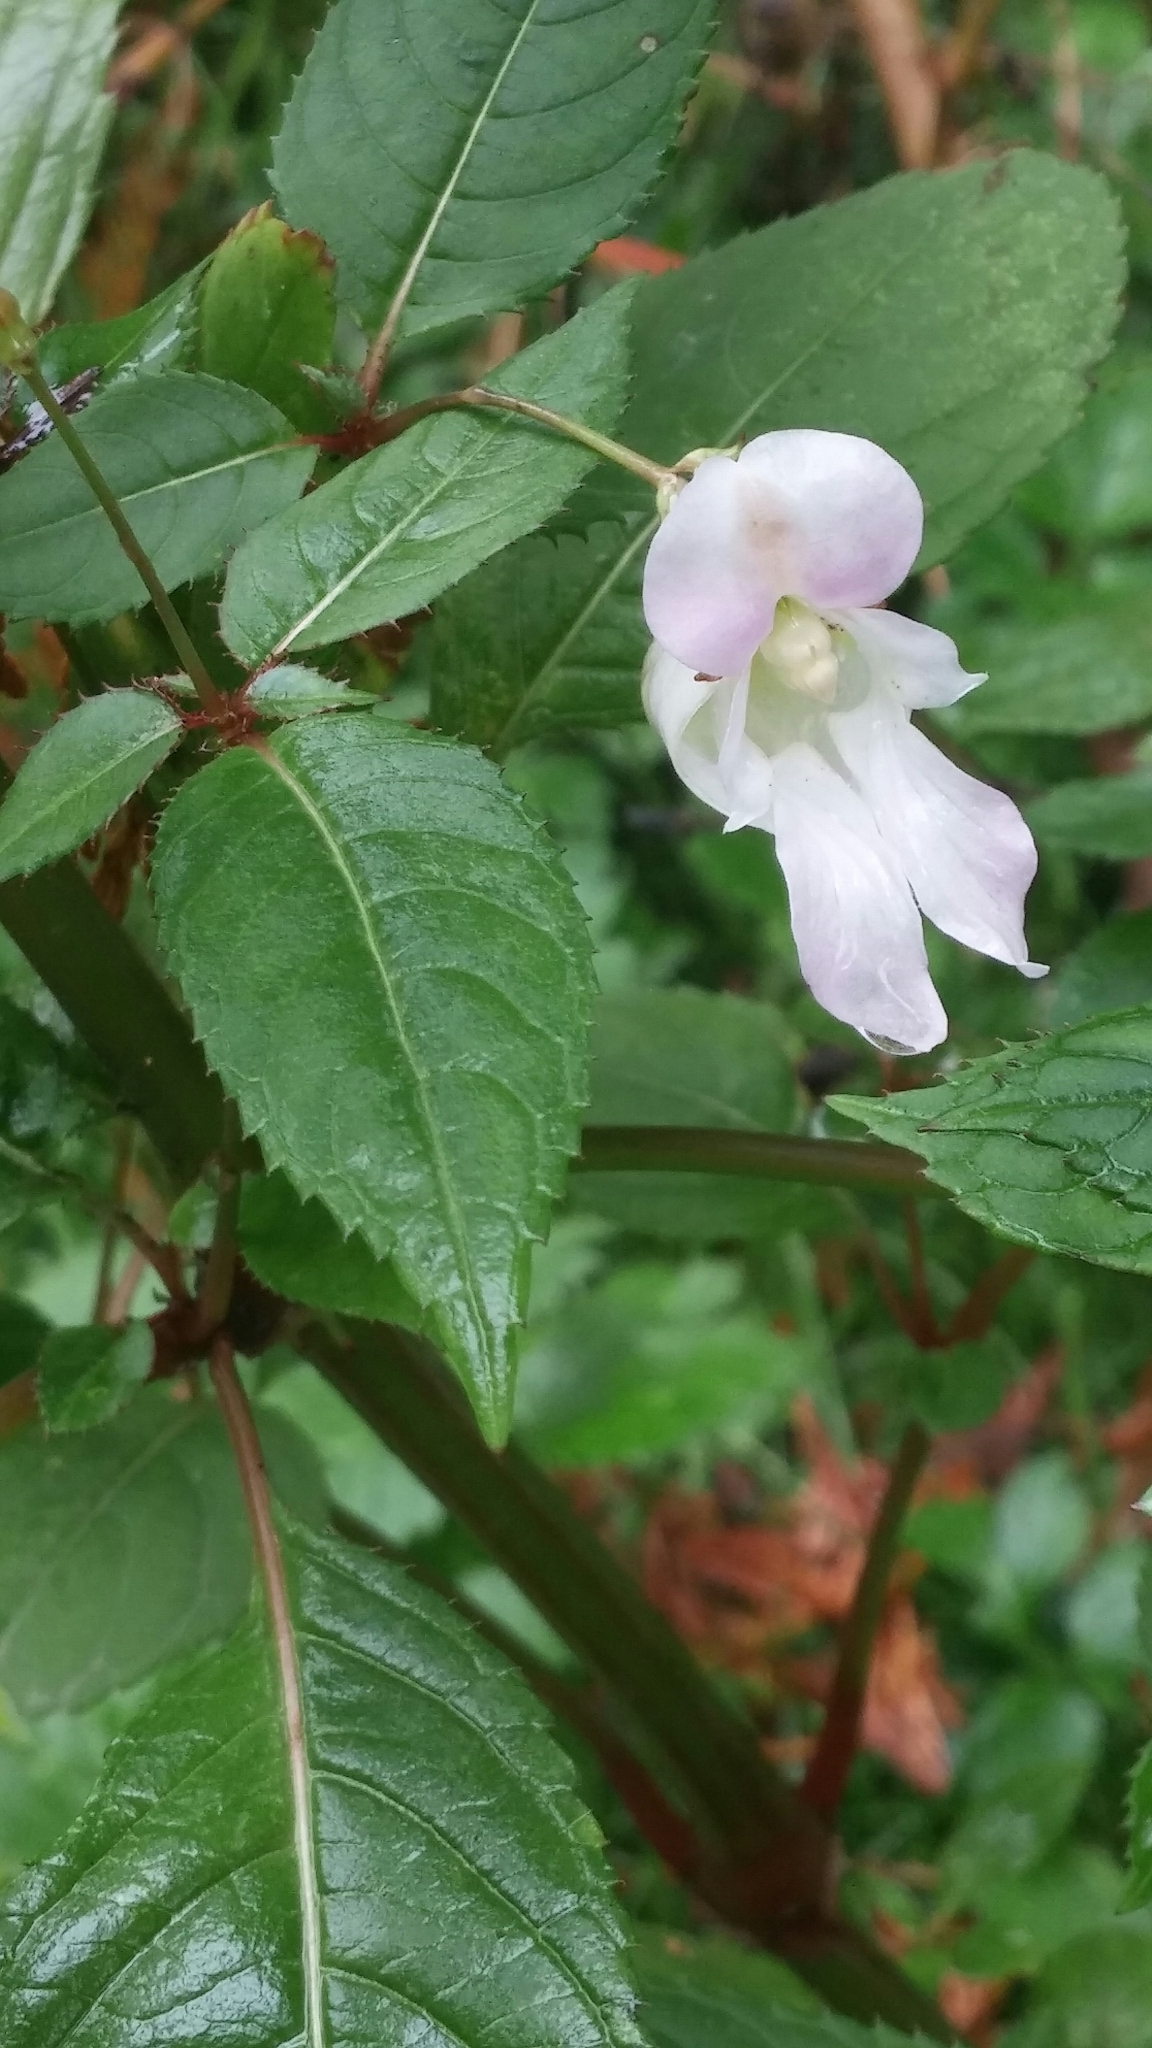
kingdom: Plantae
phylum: Tracheophyta
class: Magnoliopsida
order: Ericales
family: Balsaminaceae
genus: Impatiens
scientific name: Impatiens glandulifera
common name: Himalayan balsam
